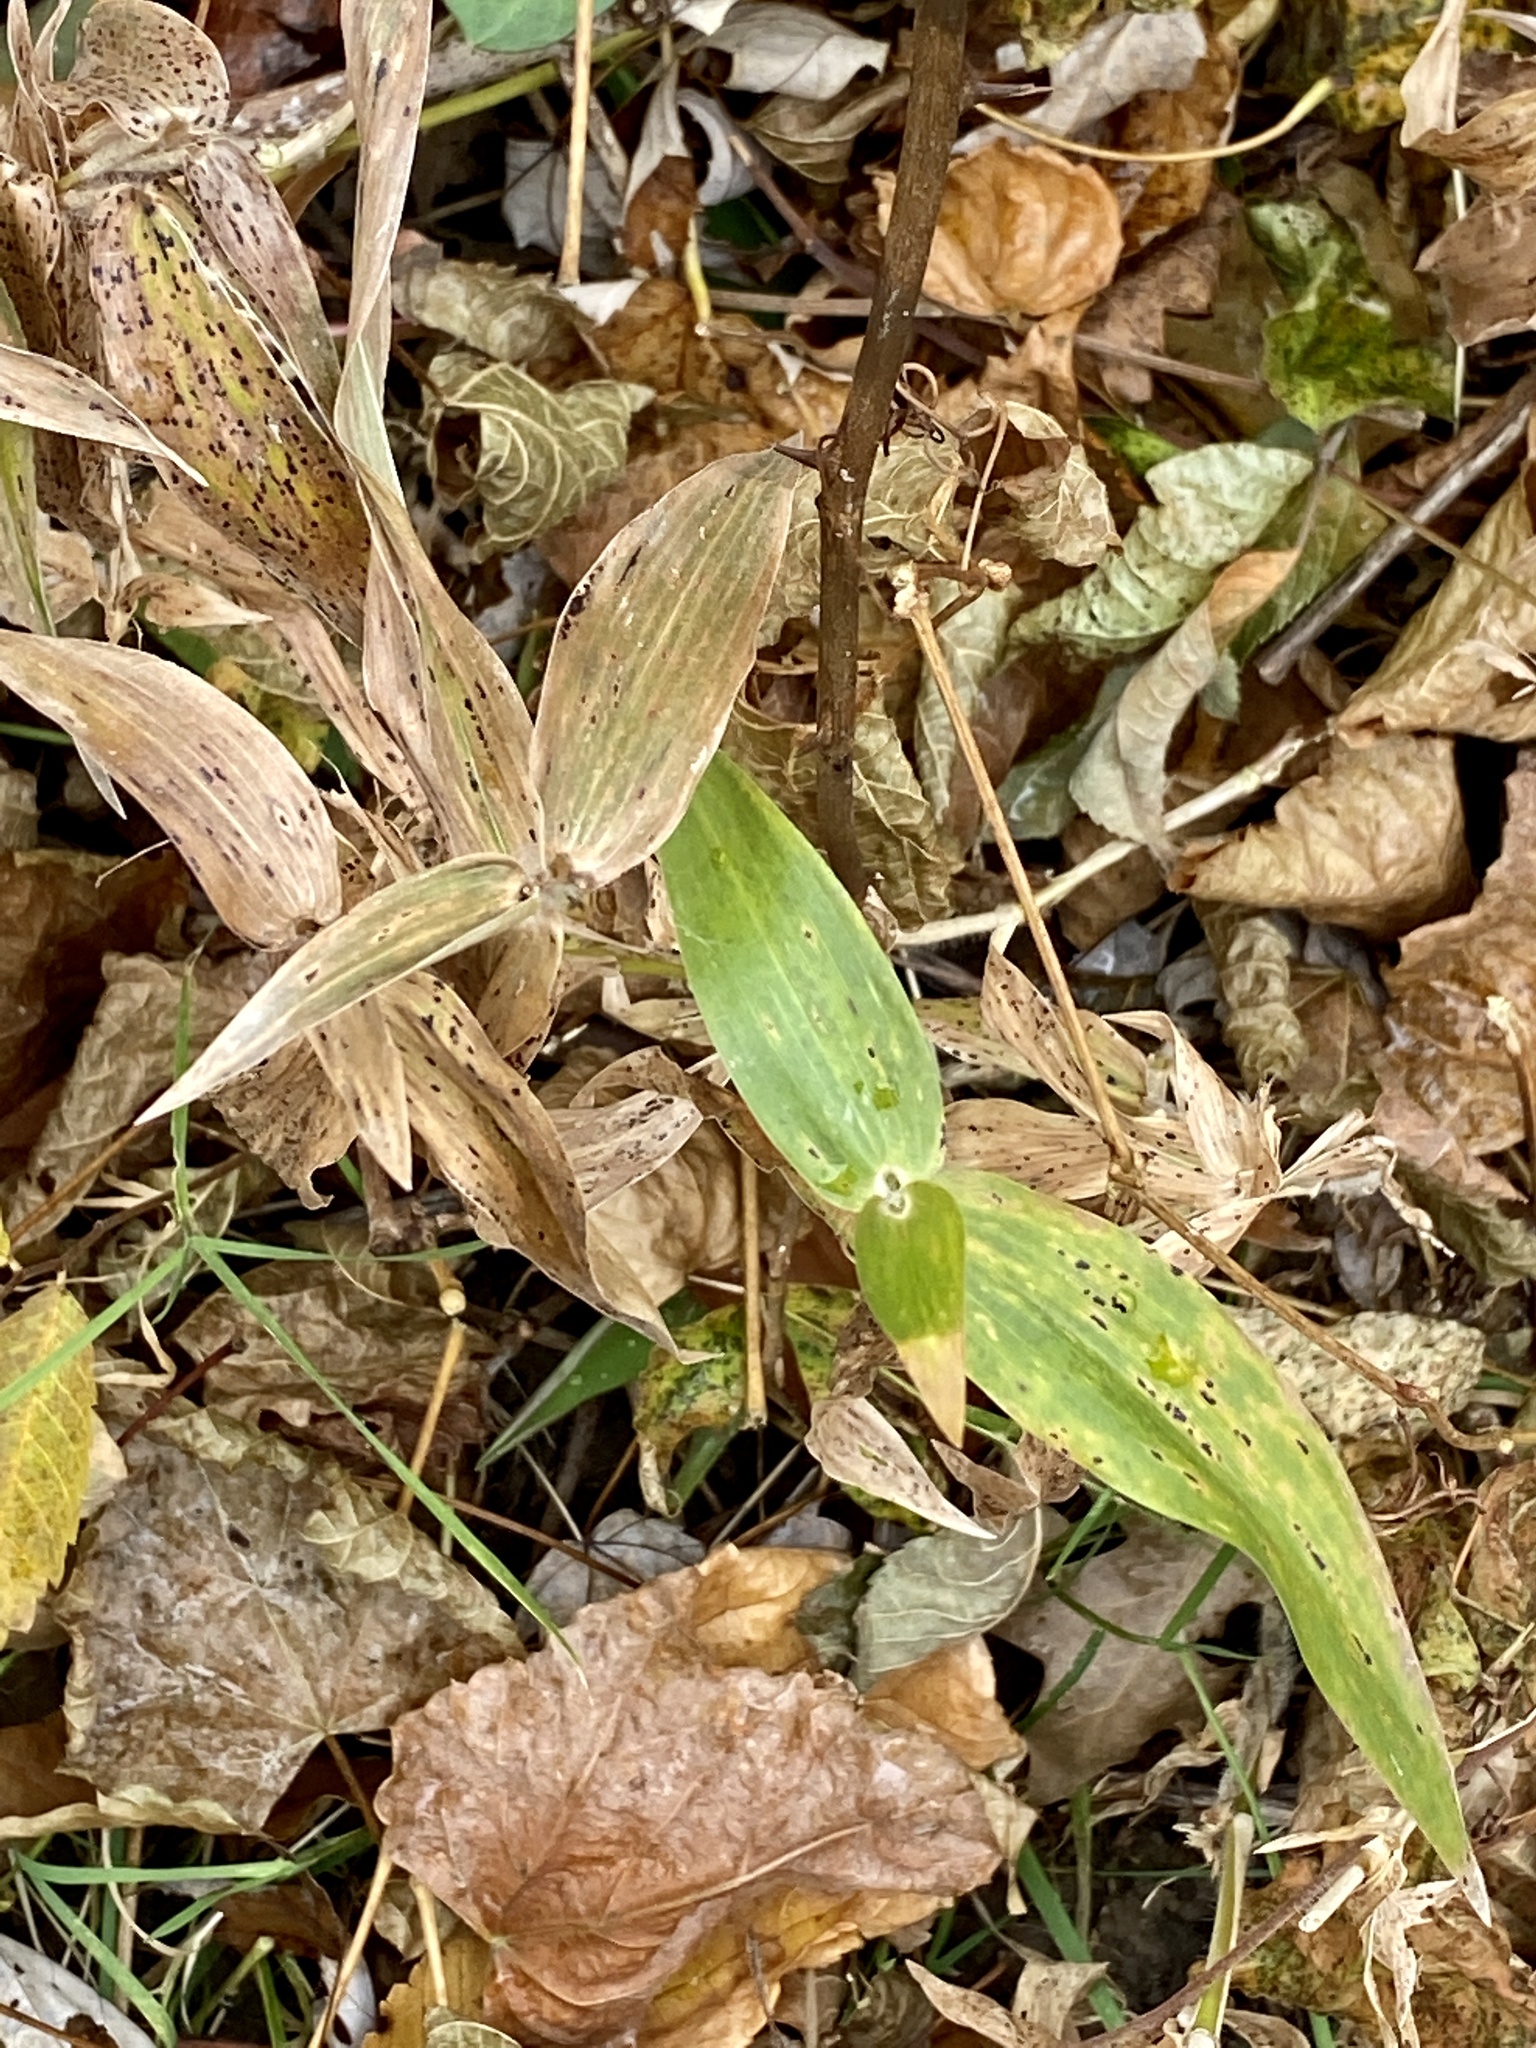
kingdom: Plantae
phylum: Tracheophyta
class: Liliopsida
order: Poales
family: Poaceae
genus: Dichanthelium
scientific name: Dichanthelium clandestinum
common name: Deer-tongue grass
